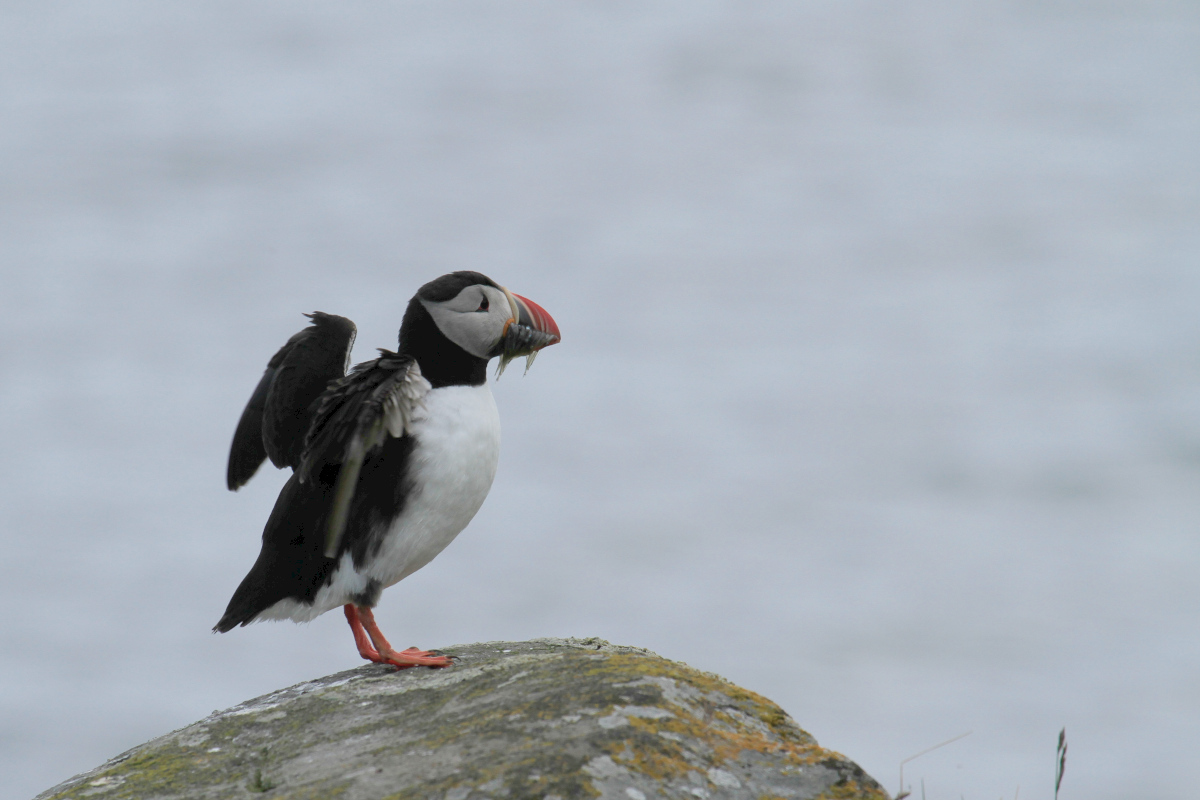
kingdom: Animalia
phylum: Chordata
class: Aves
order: Charadriiformes
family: Alcidae
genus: Fratercula
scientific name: Fratercula arctica
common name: Atlantic puffin
